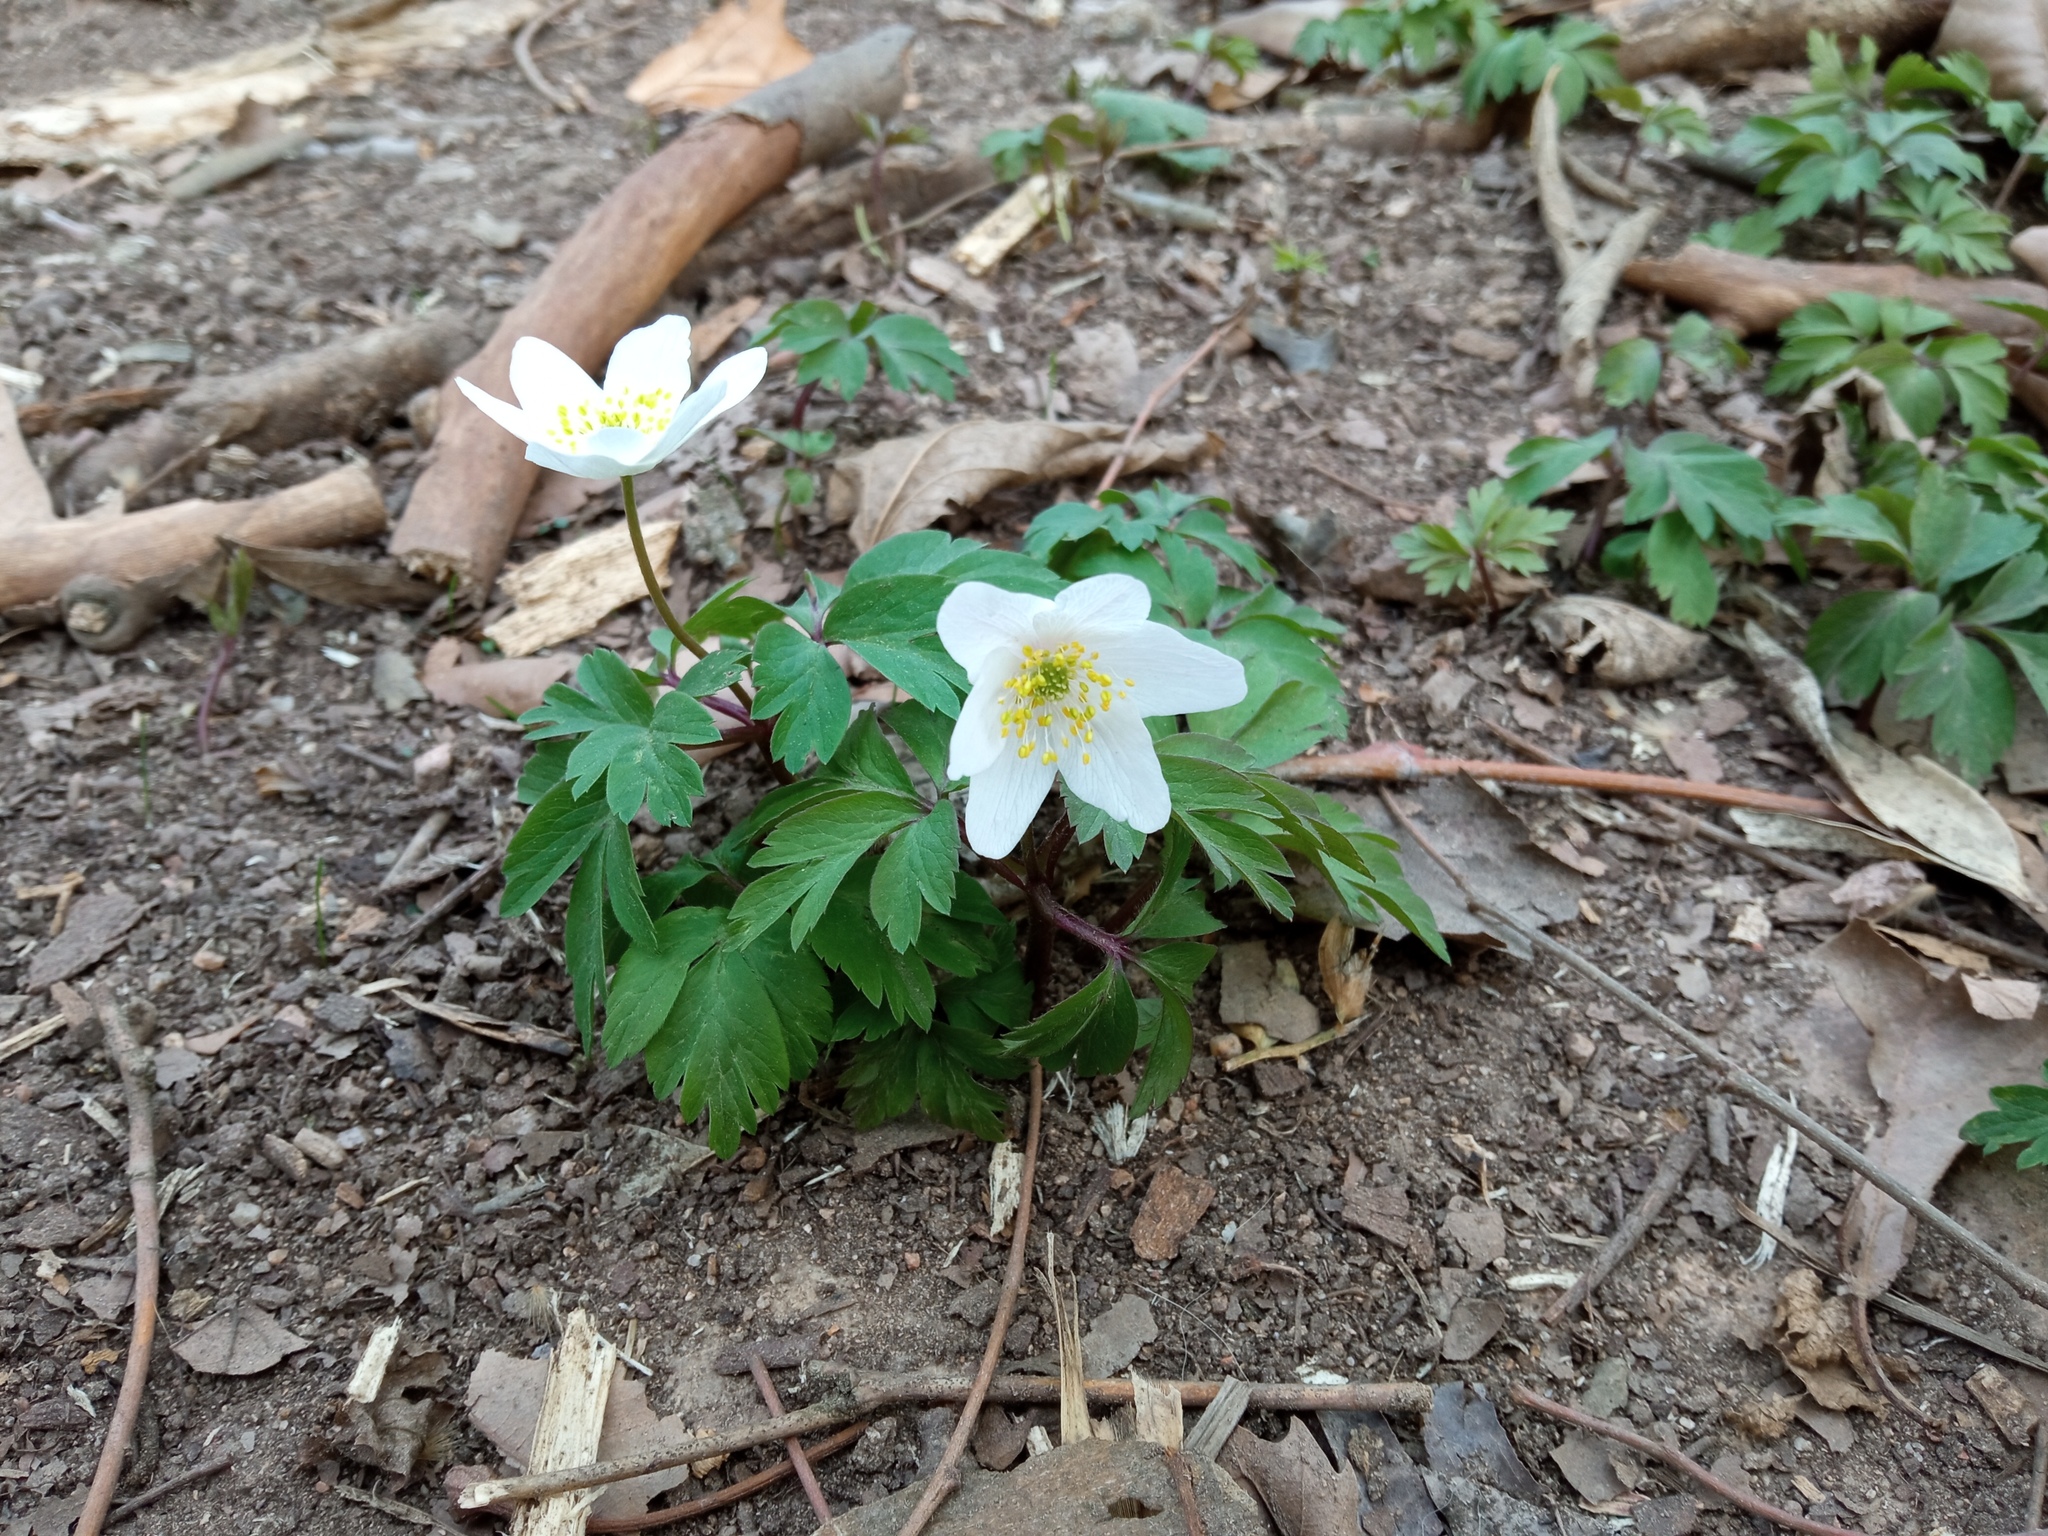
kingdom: Plantae
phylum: Tracheophyta
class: Magnoliopsida
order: Ranunculales
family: Ranunculaceae
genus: Anemone
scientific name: Anemone nemorosa
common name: Wood anemone
